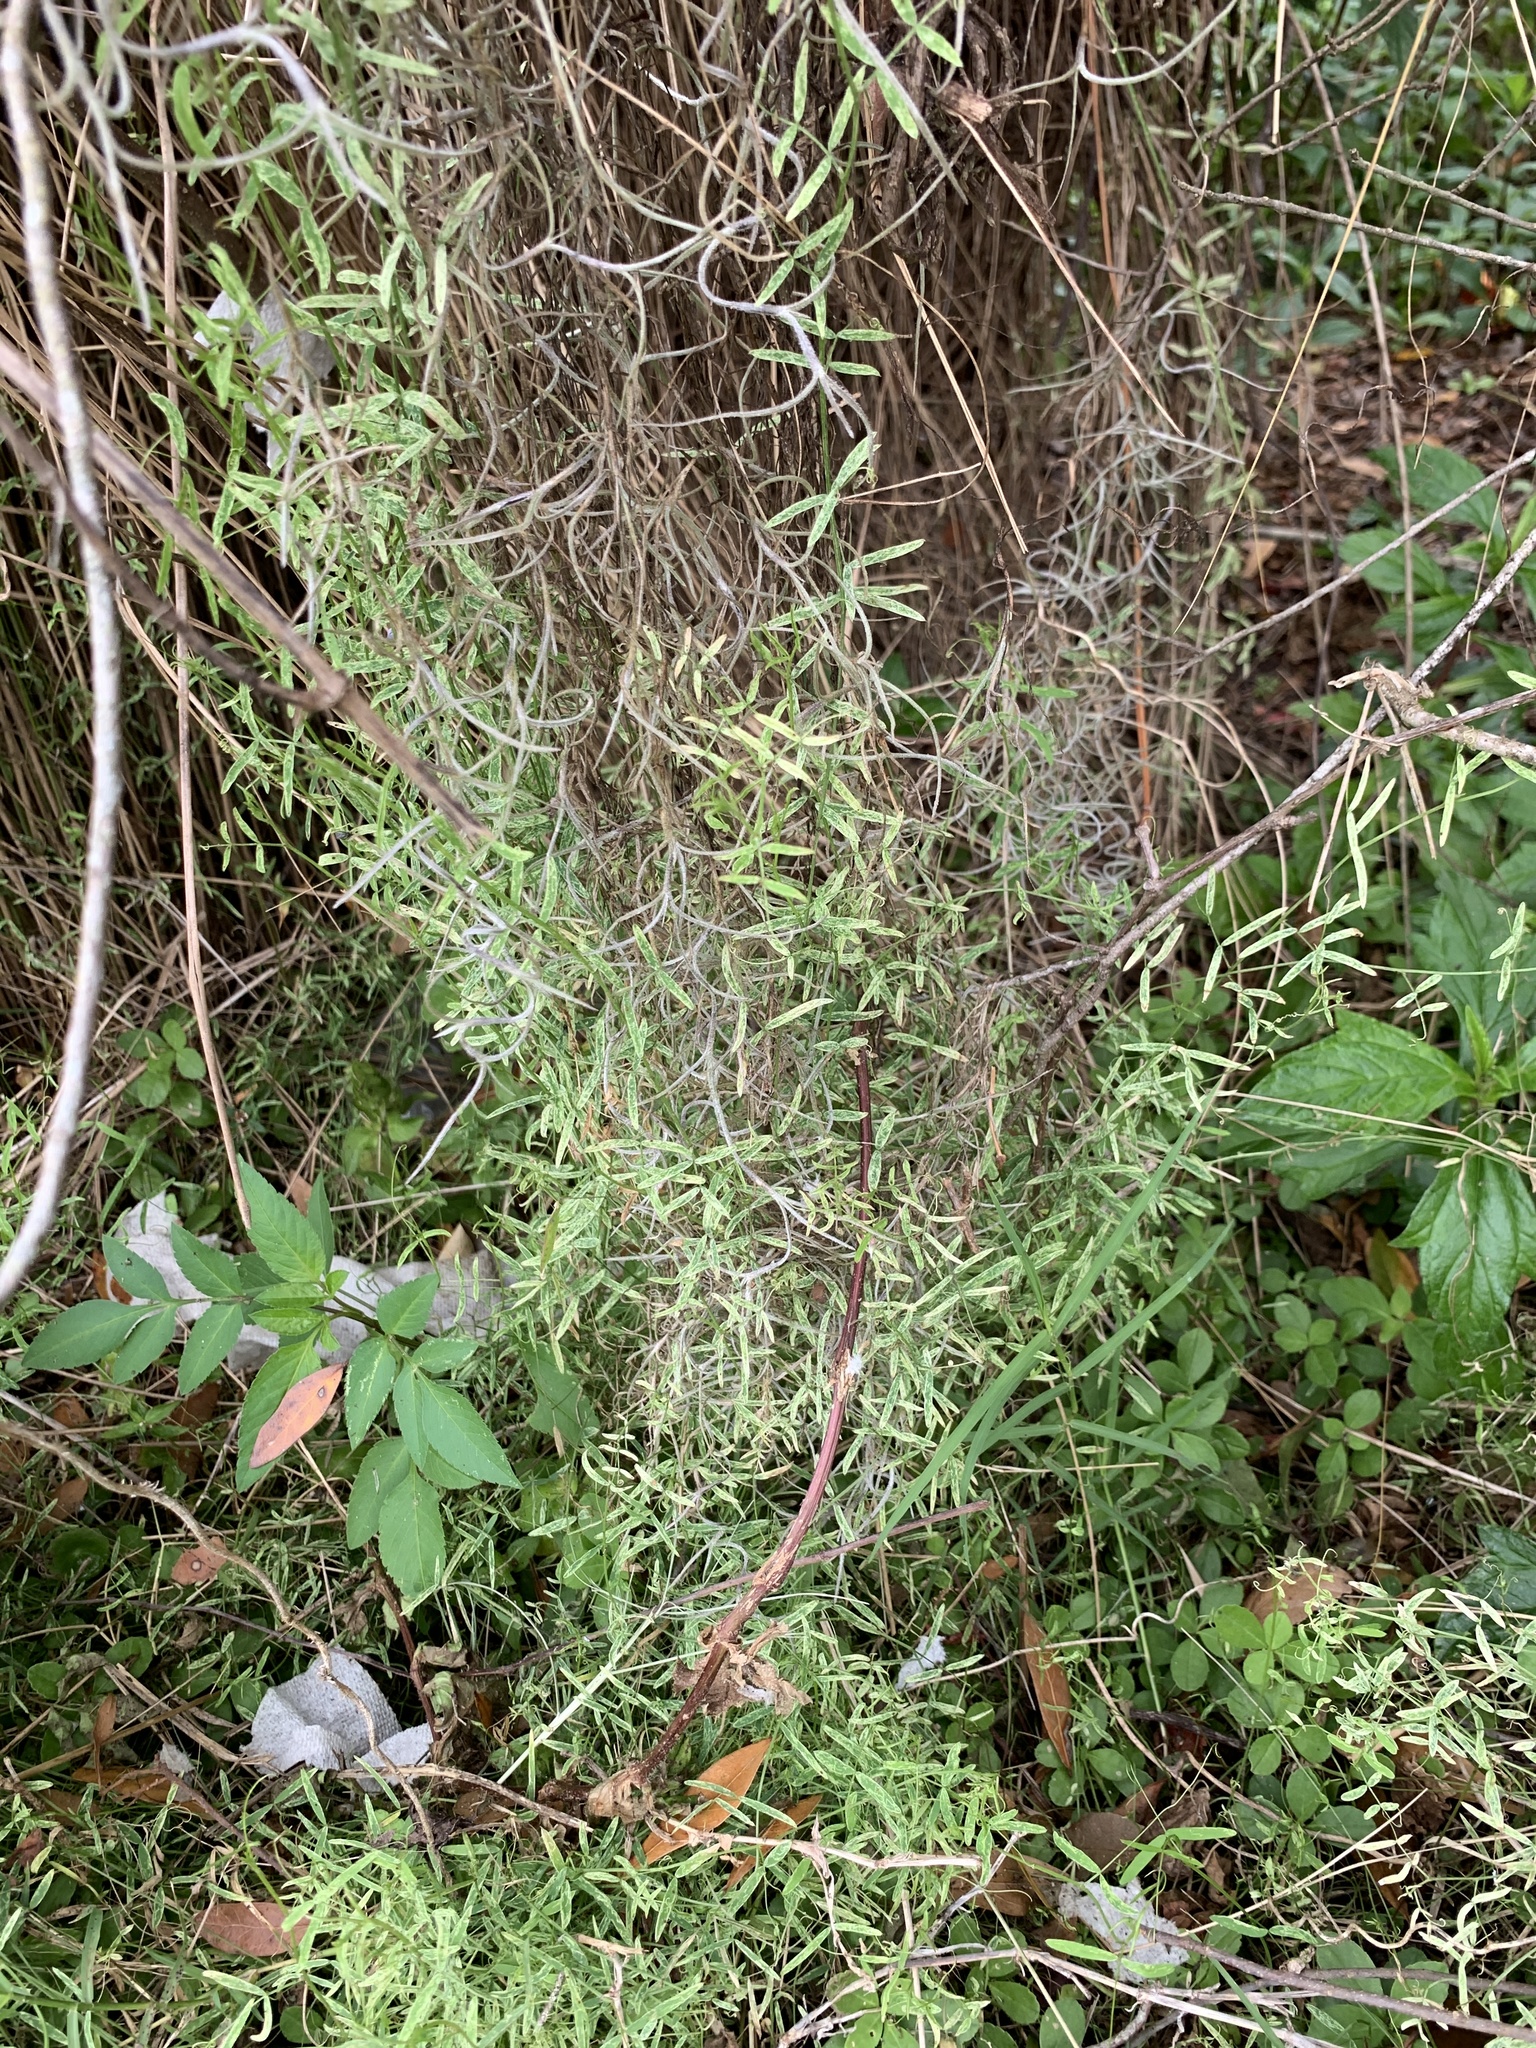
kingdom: Plantae
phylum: Tracheophyta
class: Magnoliopsida
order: Fabales
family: Fabaceae
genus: Vicia
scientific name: Vicia acutifolia
